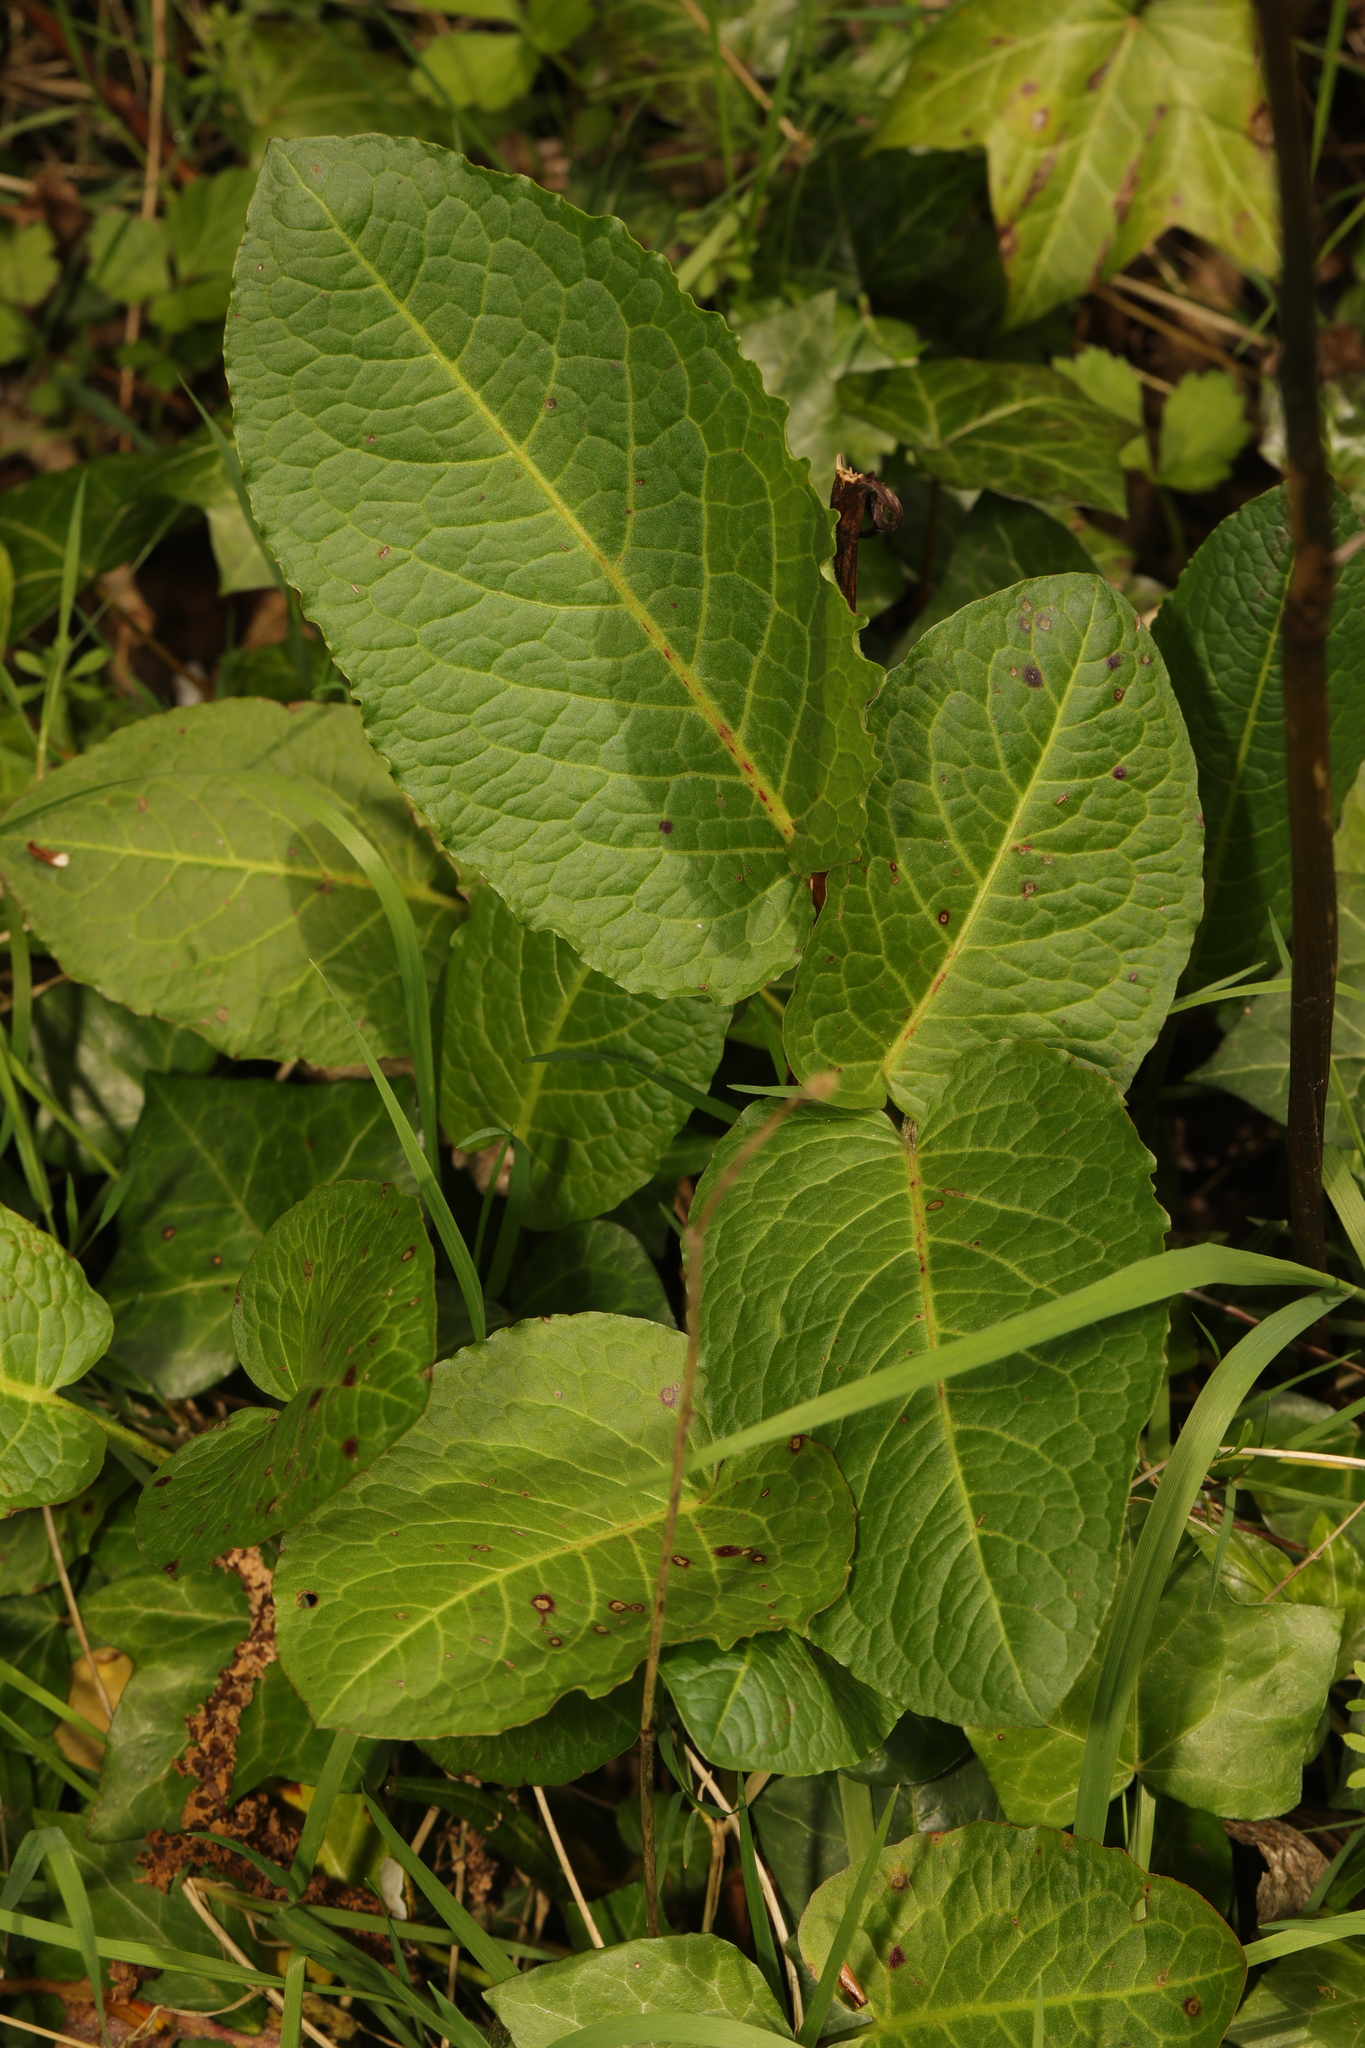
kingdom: Plantae
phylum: Tracheophyta
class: Magnoliopsida
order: Caryophyllales
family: Polygonaceae
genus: Rumex
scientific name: Rumex obtusifolius
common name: Bitter dock
